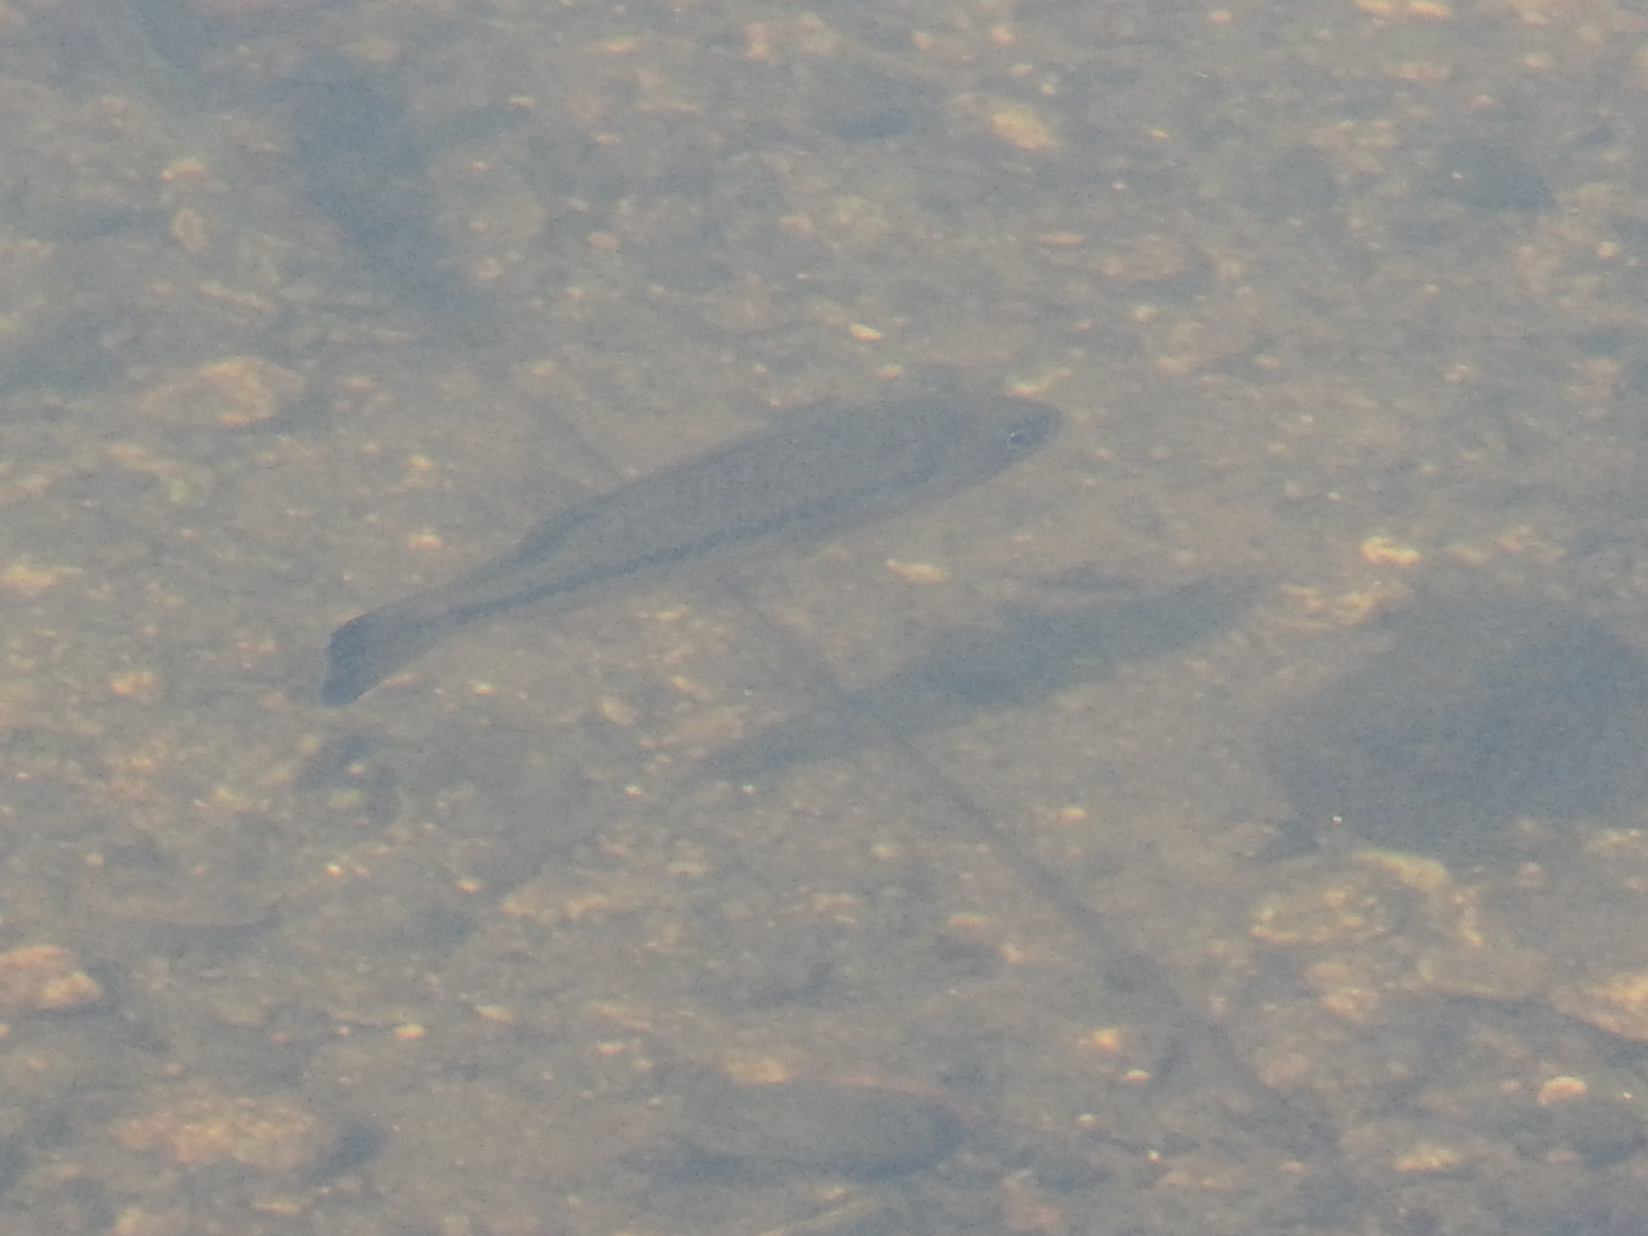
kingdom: Animalia
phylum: Chordata
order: Perciformes
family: Centrarchidae
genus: Micropterus
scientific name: Micropterus
